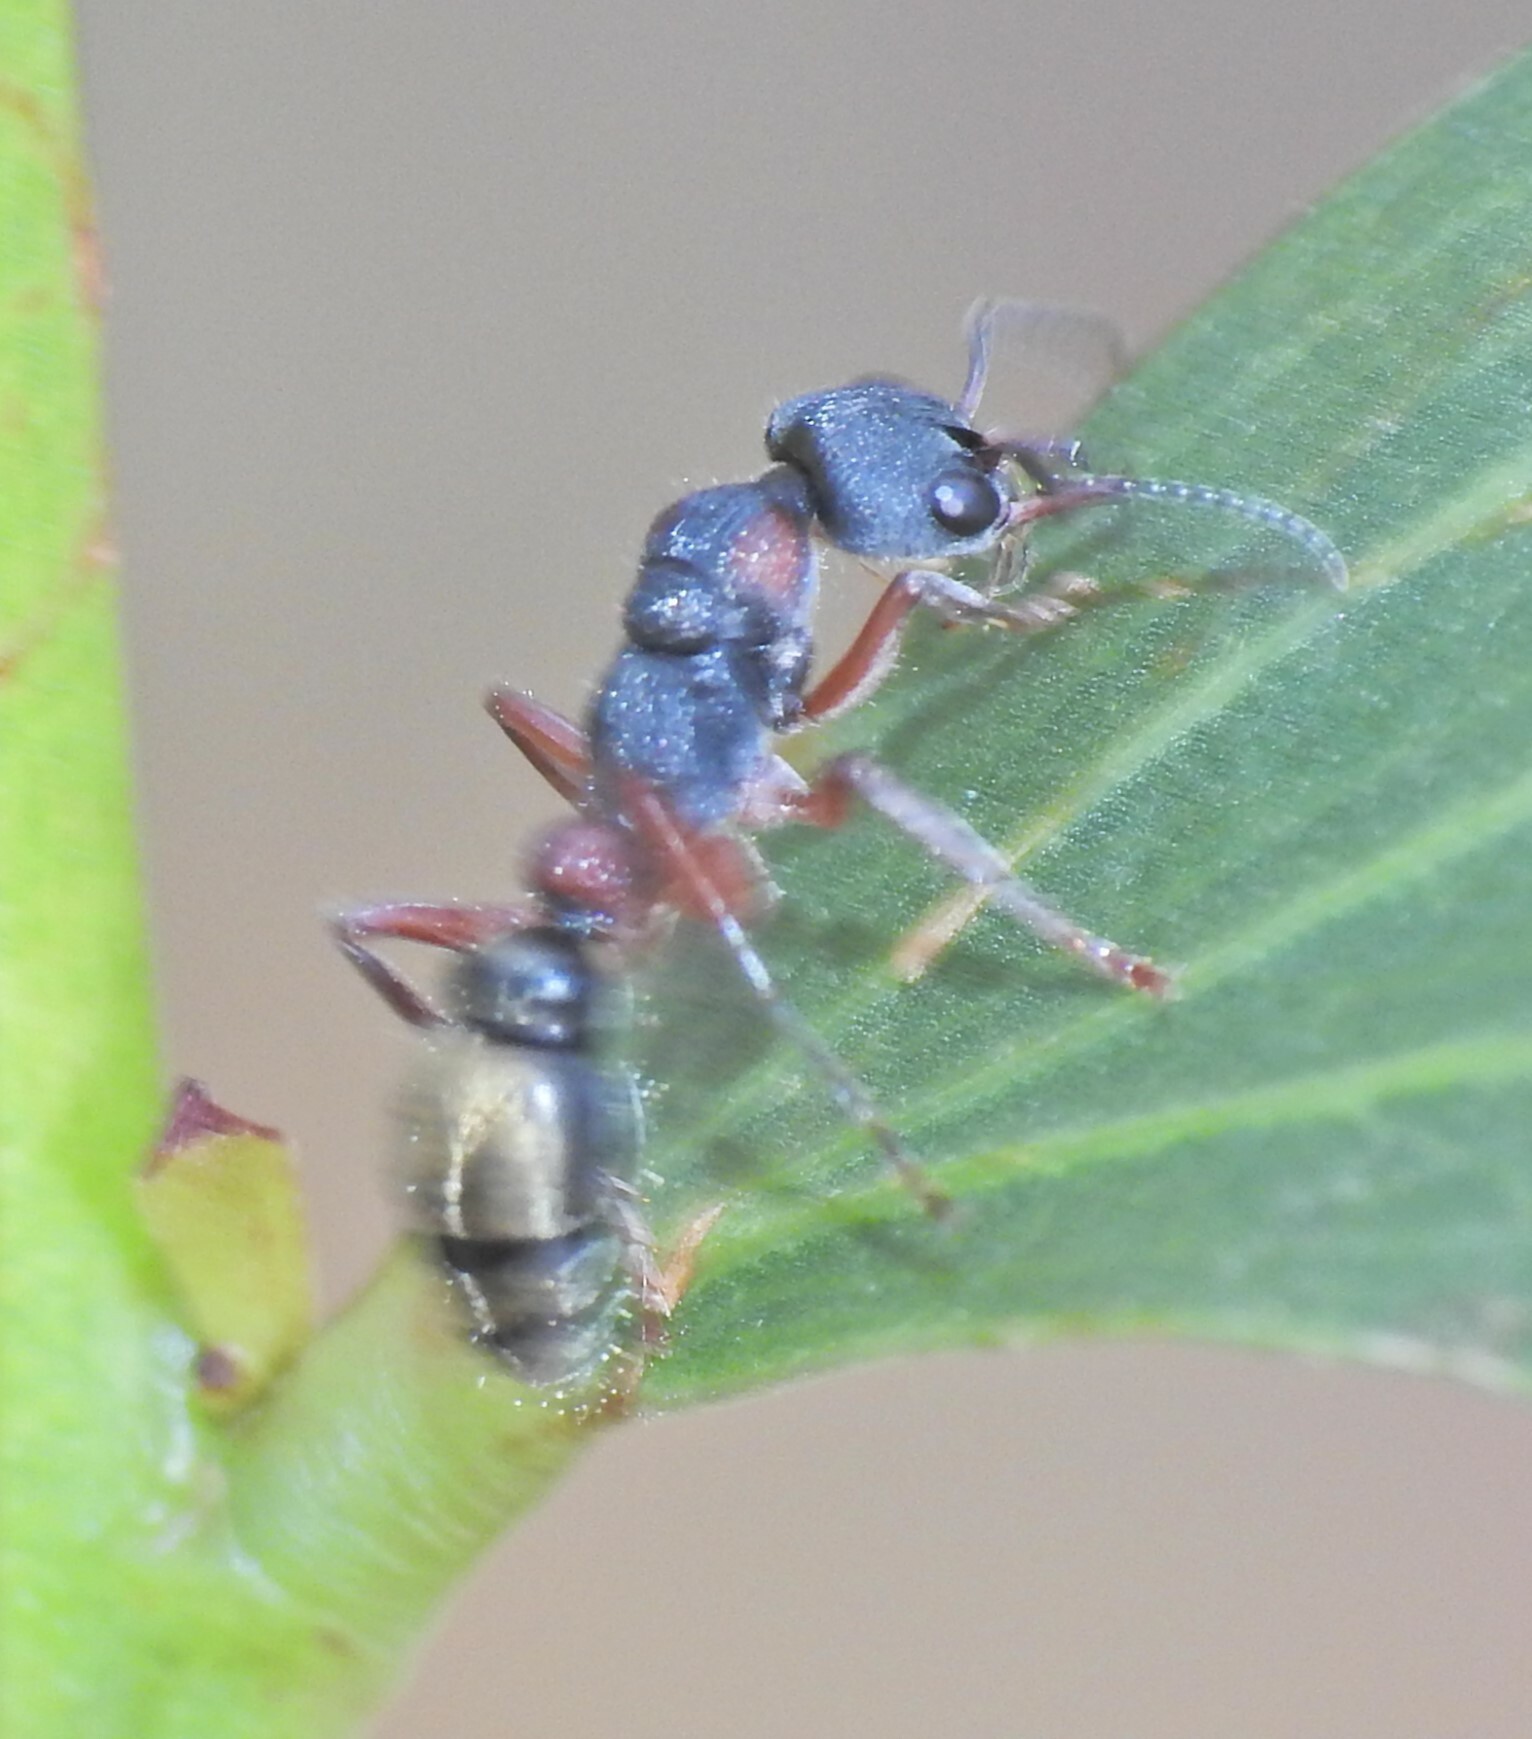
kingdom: Animalia
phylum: Arthropoda
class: Insecta
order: Hymenoptera
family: Formicidae
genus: Myrmecia
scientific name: Myrmecia chrysogaster
